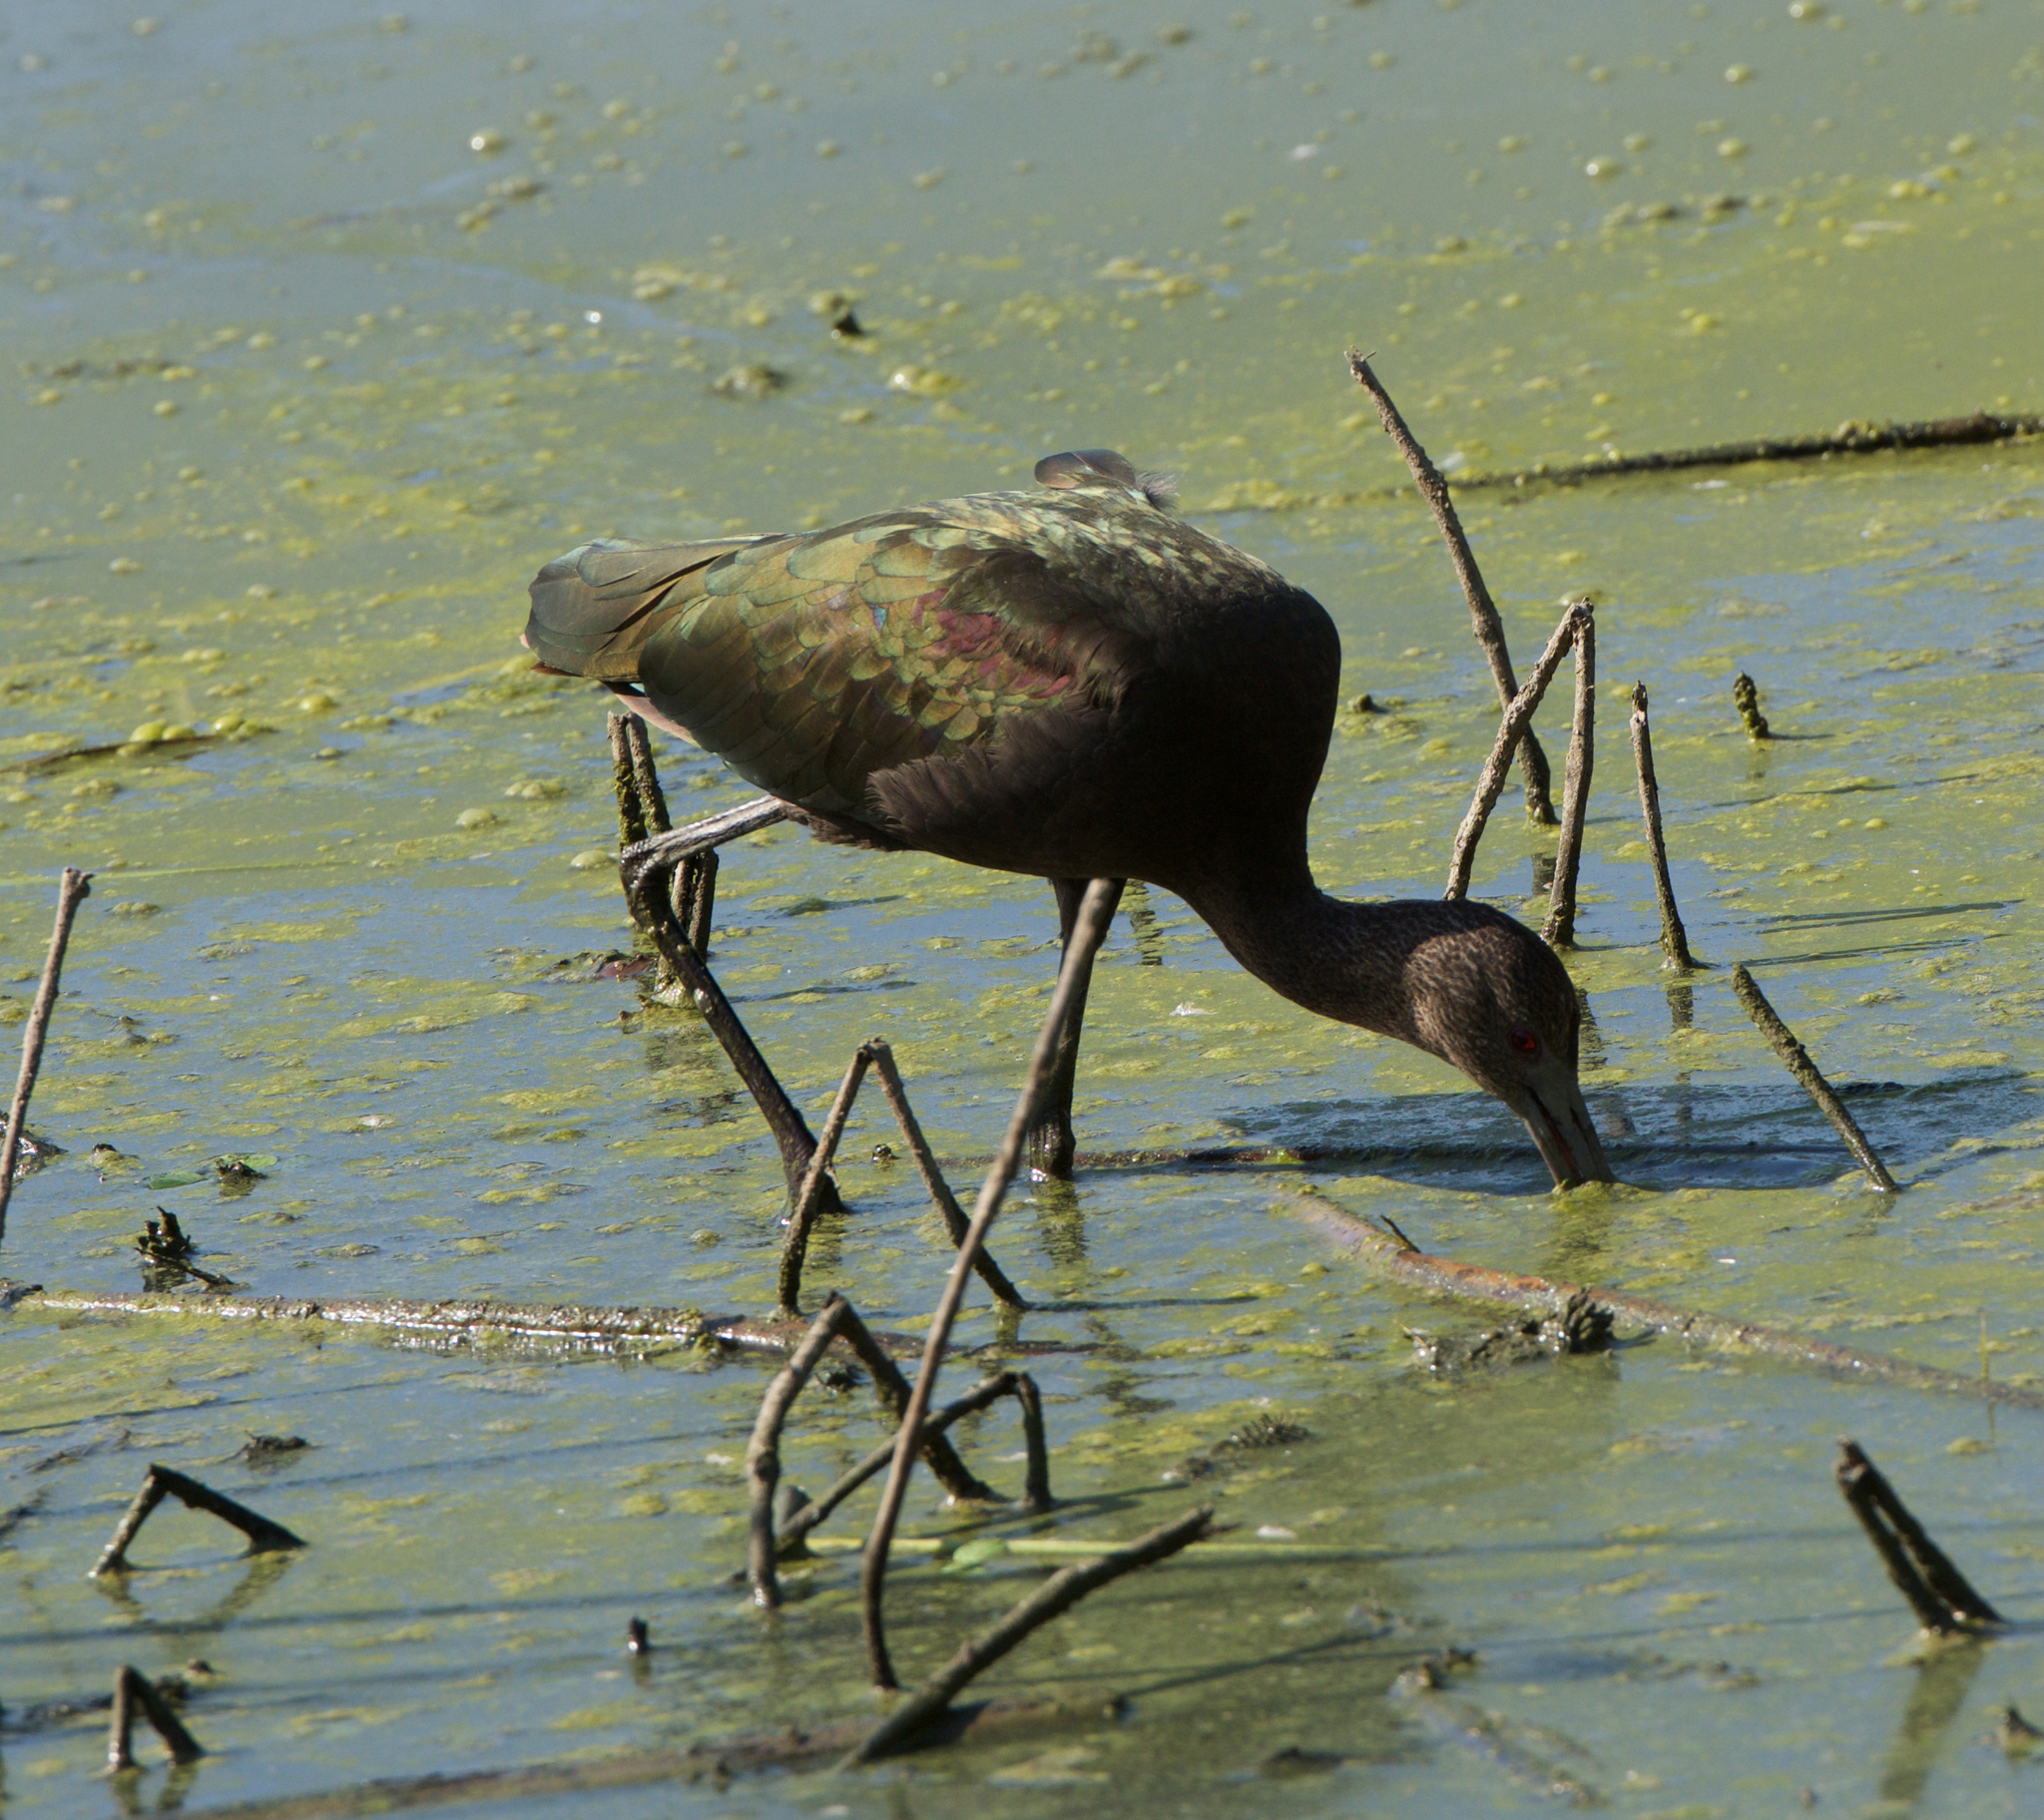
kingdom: Animalia
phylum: Chordata
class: Aves
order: Pelecaniformes
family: Threskiornithidae
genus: Plegadis
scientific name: Plegadis chihi
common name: White-faced ibis
